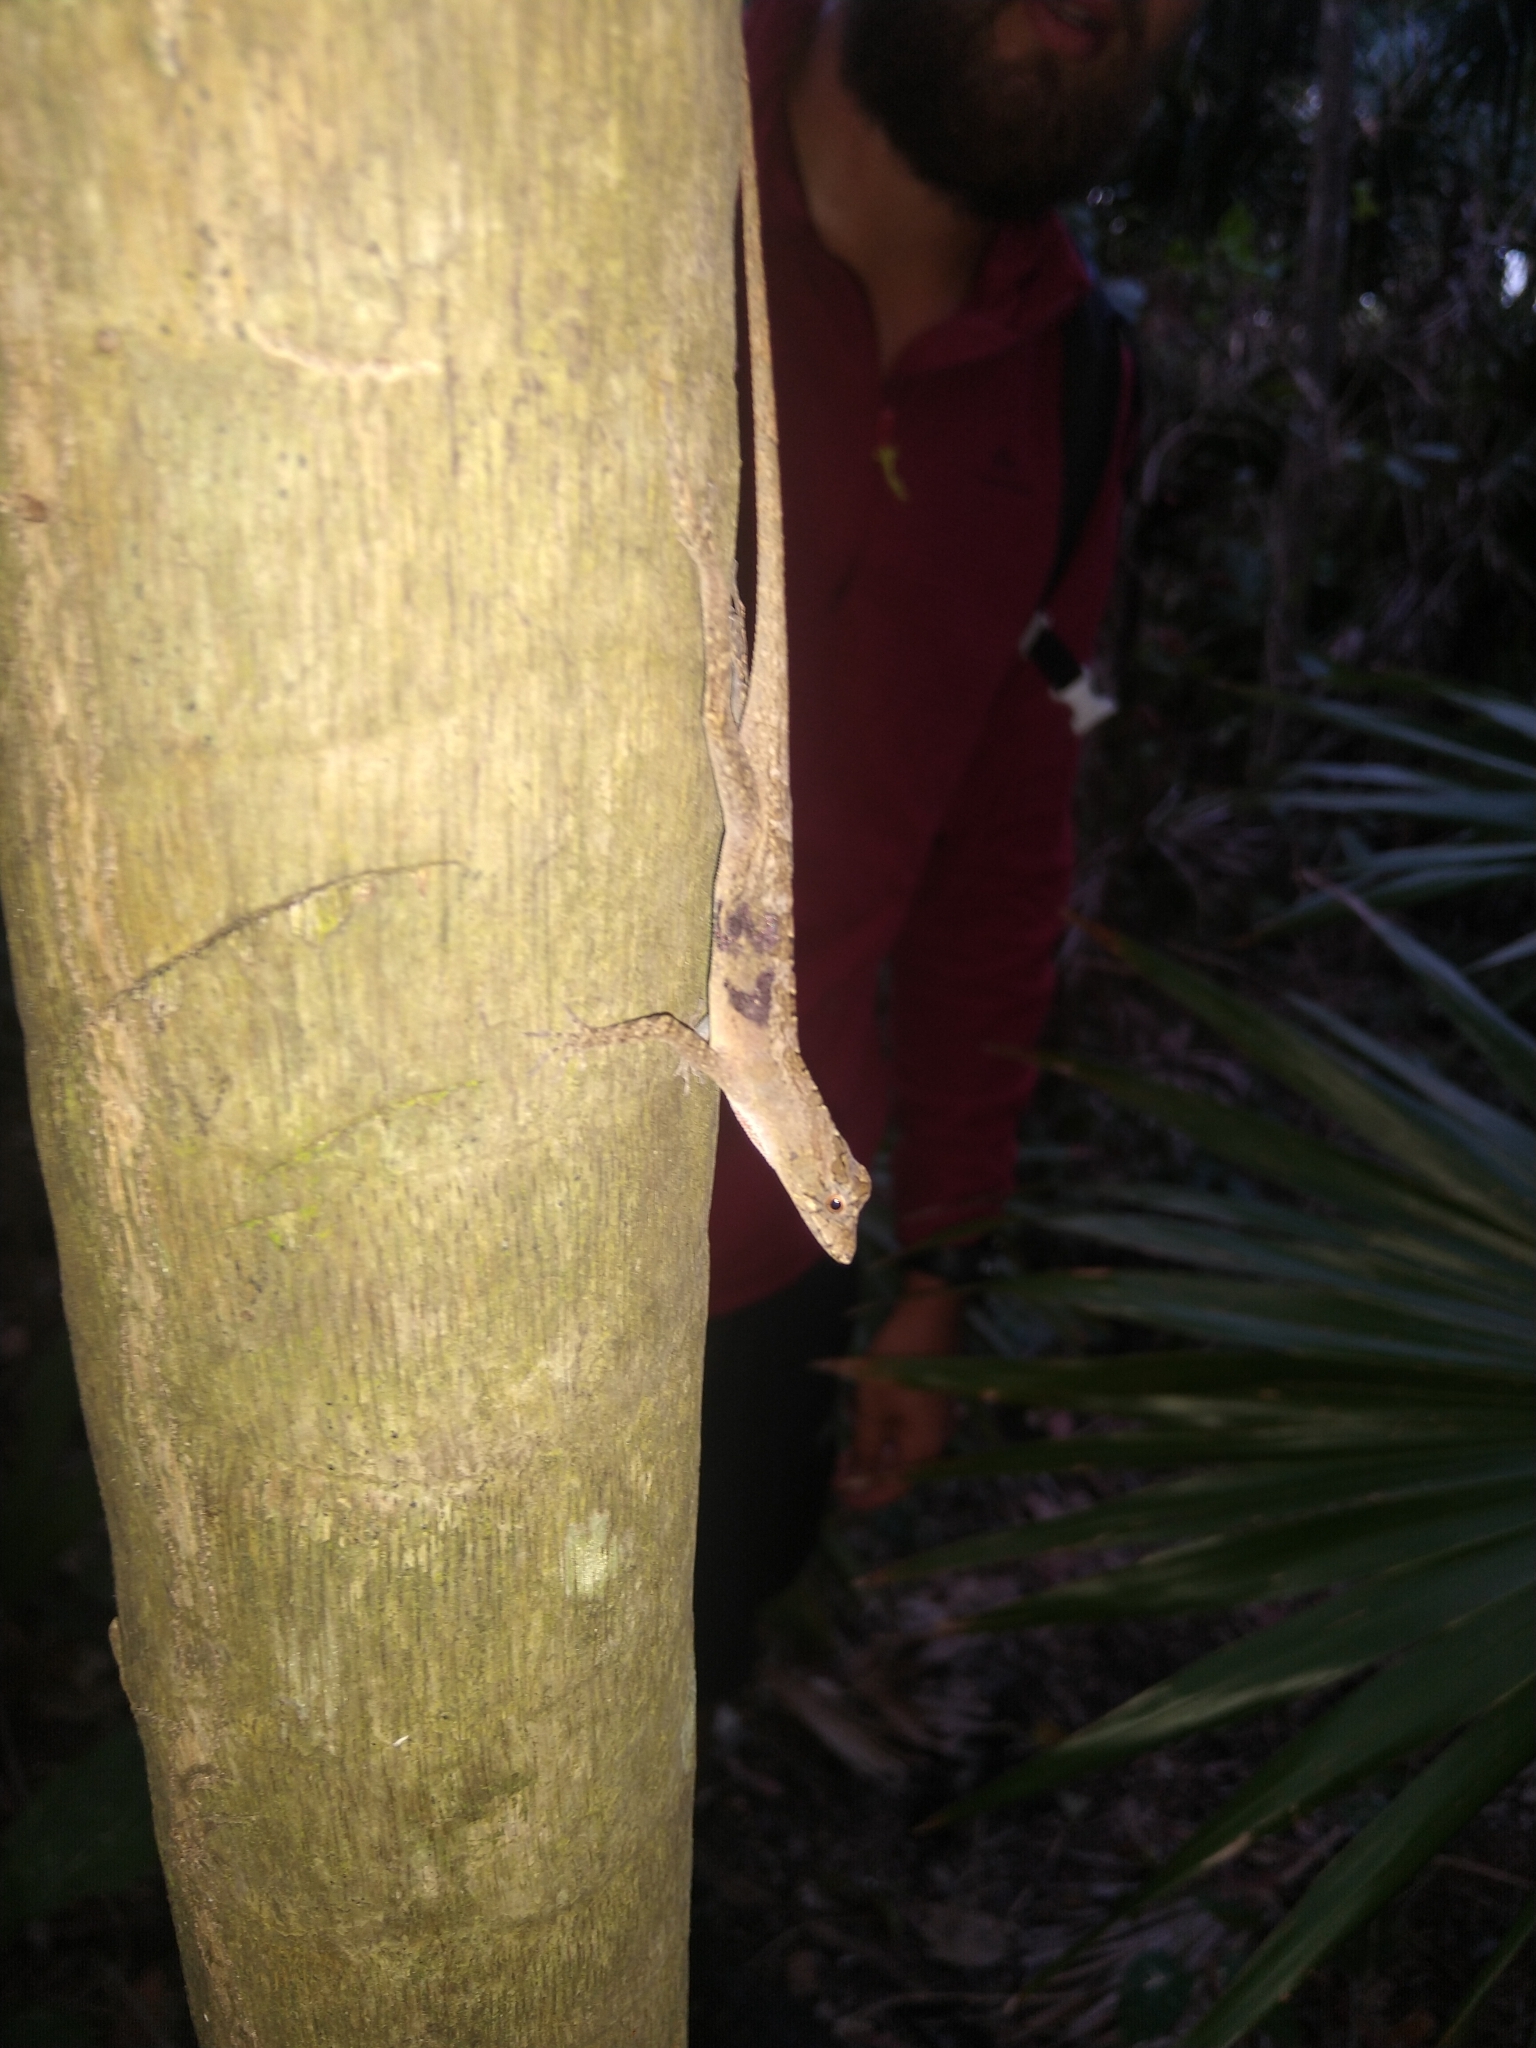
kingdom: Animalia
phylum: Chordata
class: Squamata
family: Dactyloidae
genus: Anolis
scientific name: Anolis bicaorum
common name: Bay islands anole
